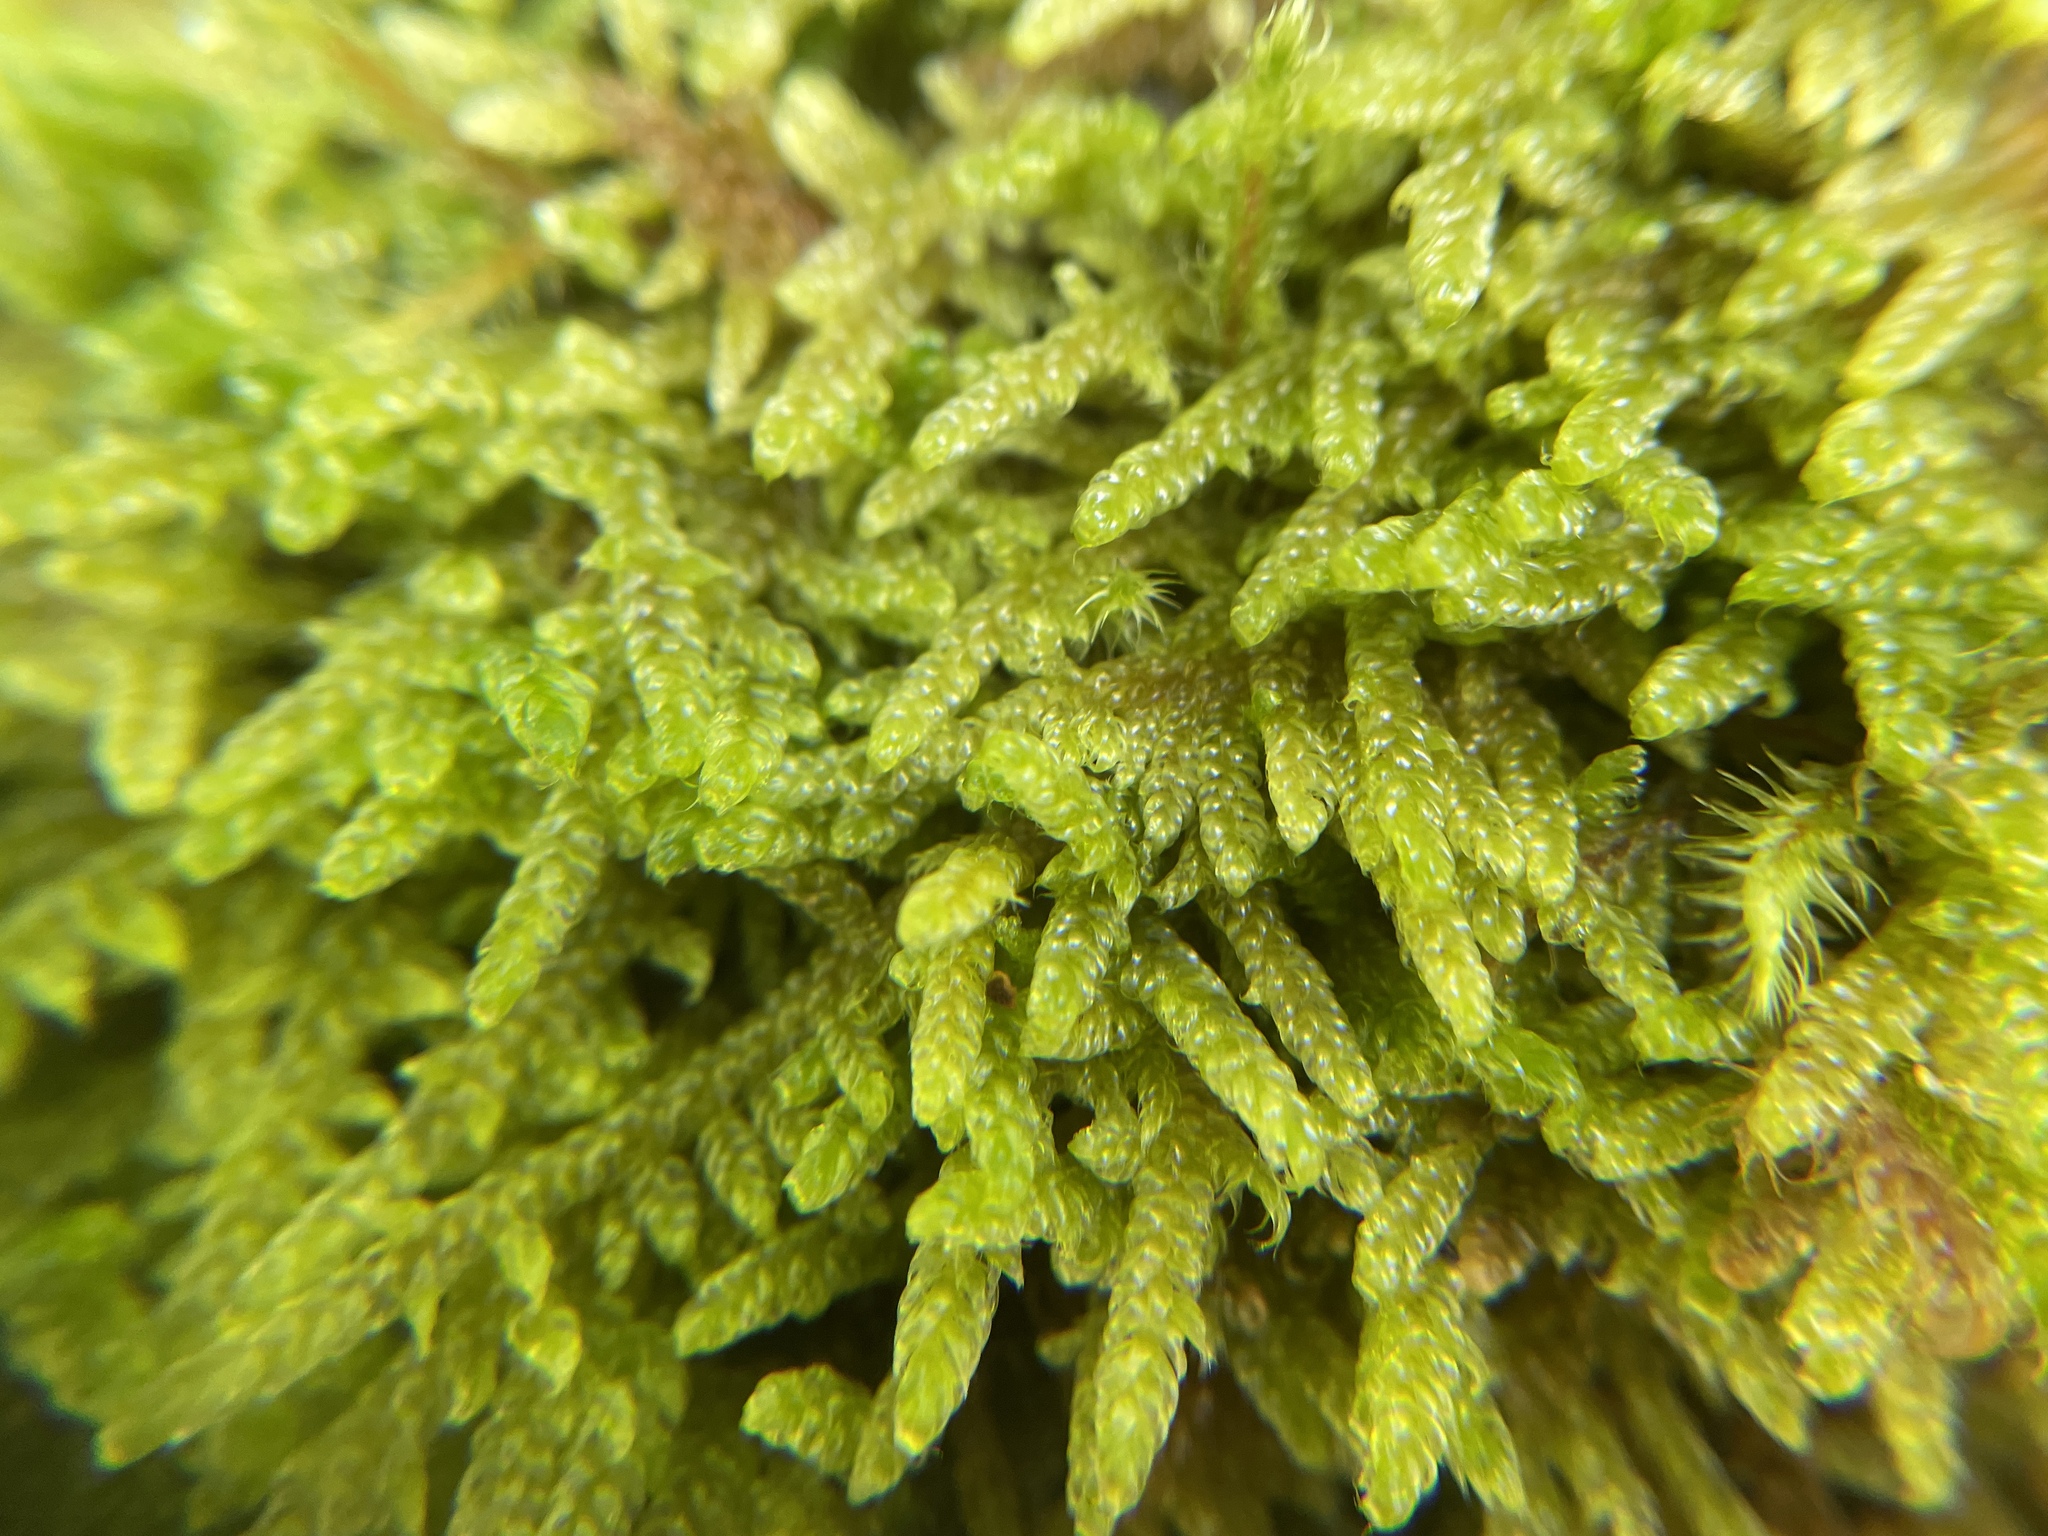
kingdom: Plantae
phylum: Bryophyta
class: Bryopsida
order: Hypnales
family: Hypnaceae
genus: Hypnum
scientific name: Hypnum cupressiforme
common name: Cypress-leaved plait-moss
